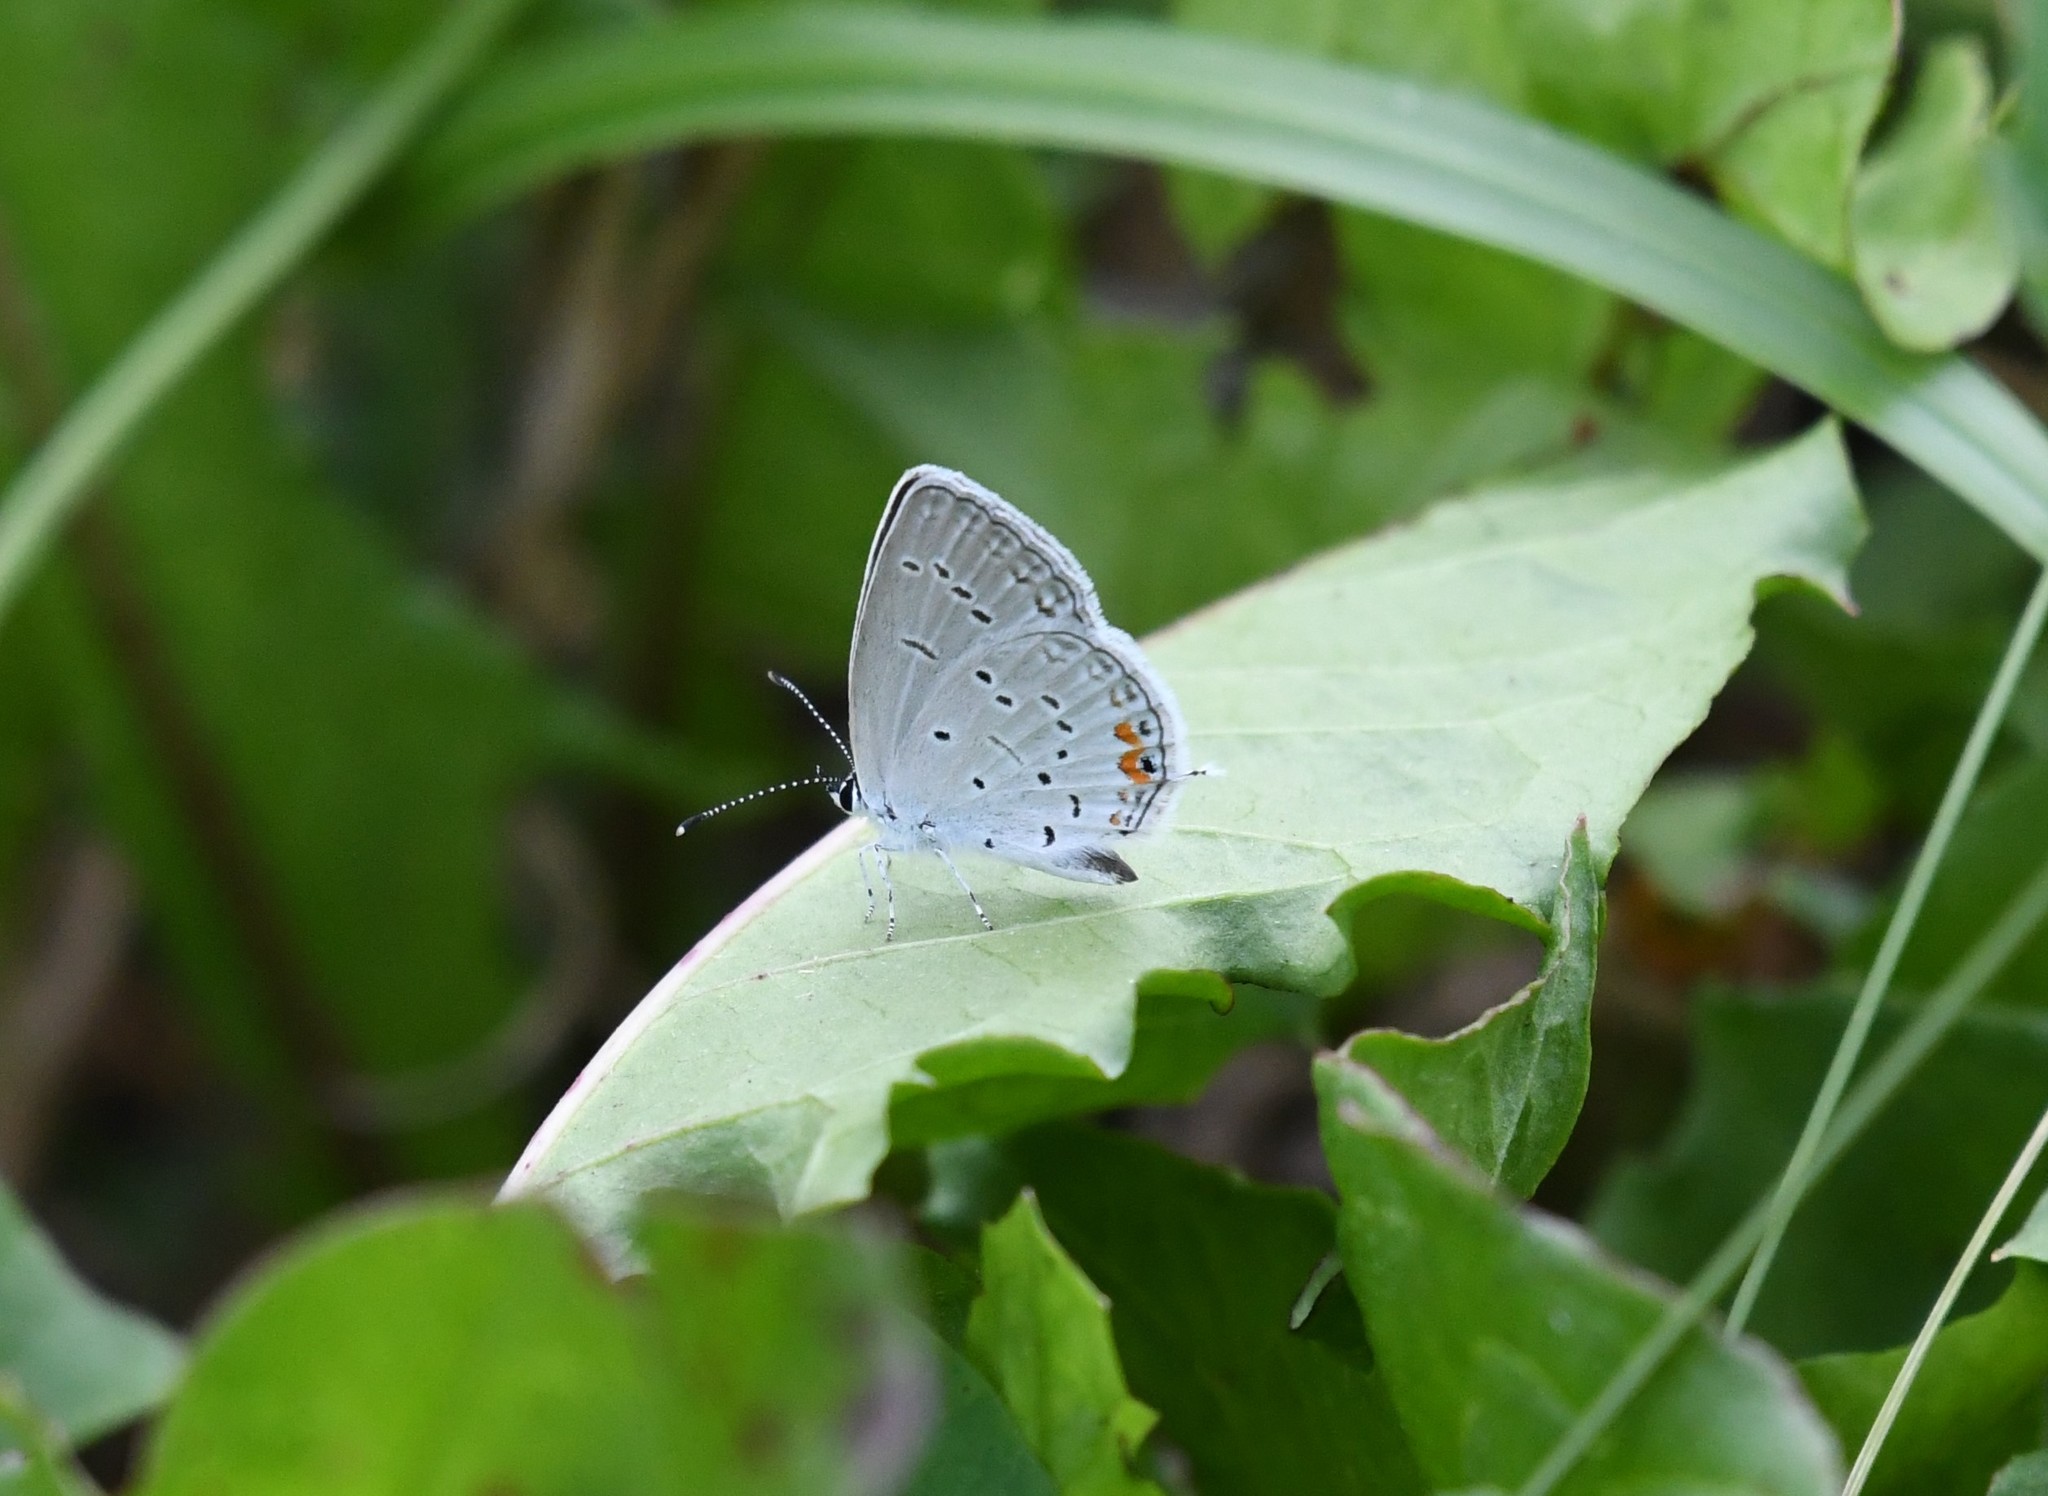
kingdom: Animalia
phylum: Arthropoda
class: Insecta
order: Lepidoptera
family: Lycaenidae
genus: Elkalyce
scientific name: Elkalyce comyntas
